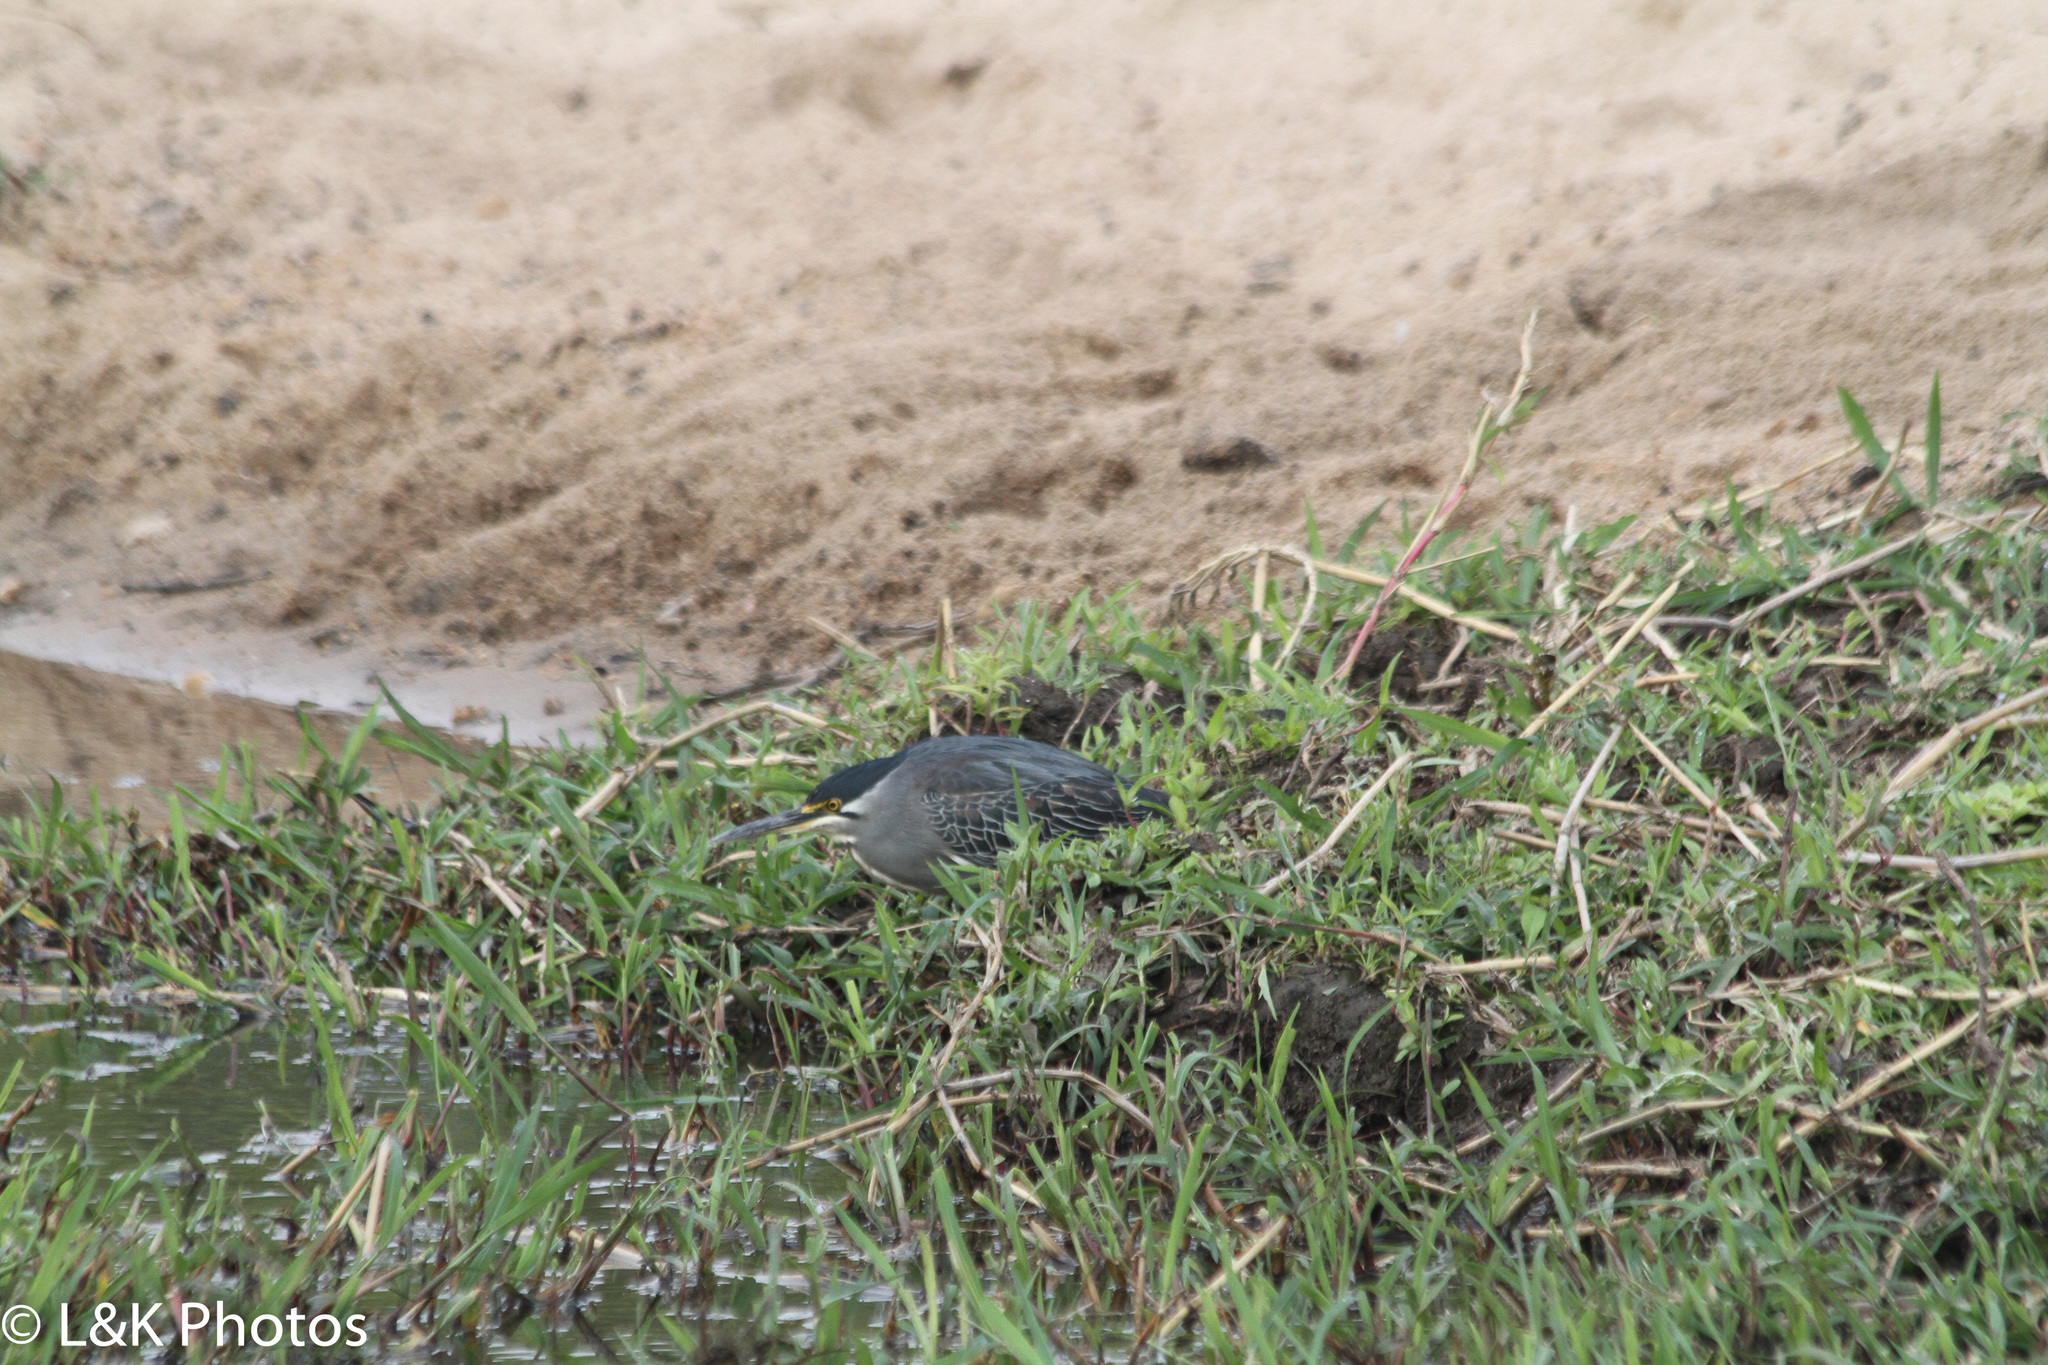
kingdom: Animalia
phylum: Chordata
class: Aves
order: Pelecaniformes
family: Ardeidae
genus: Butorides
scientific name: Butorides striata
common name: Striated heron
